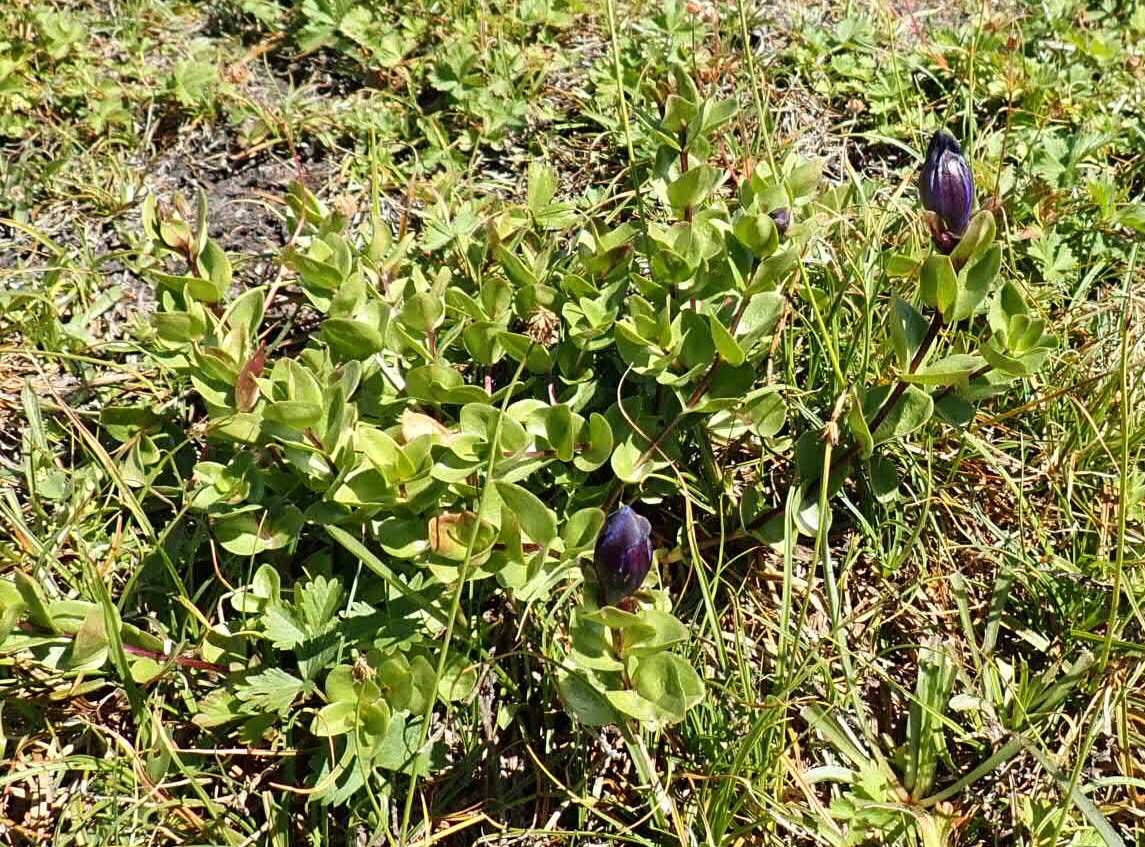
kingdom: Plantae
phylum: Tracheophyta
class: Magnoliopsida
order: Gentianales
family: Gentianaceae
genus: Gentiana
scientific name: Gentiana calycosa
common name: Rainier pleated gentian
